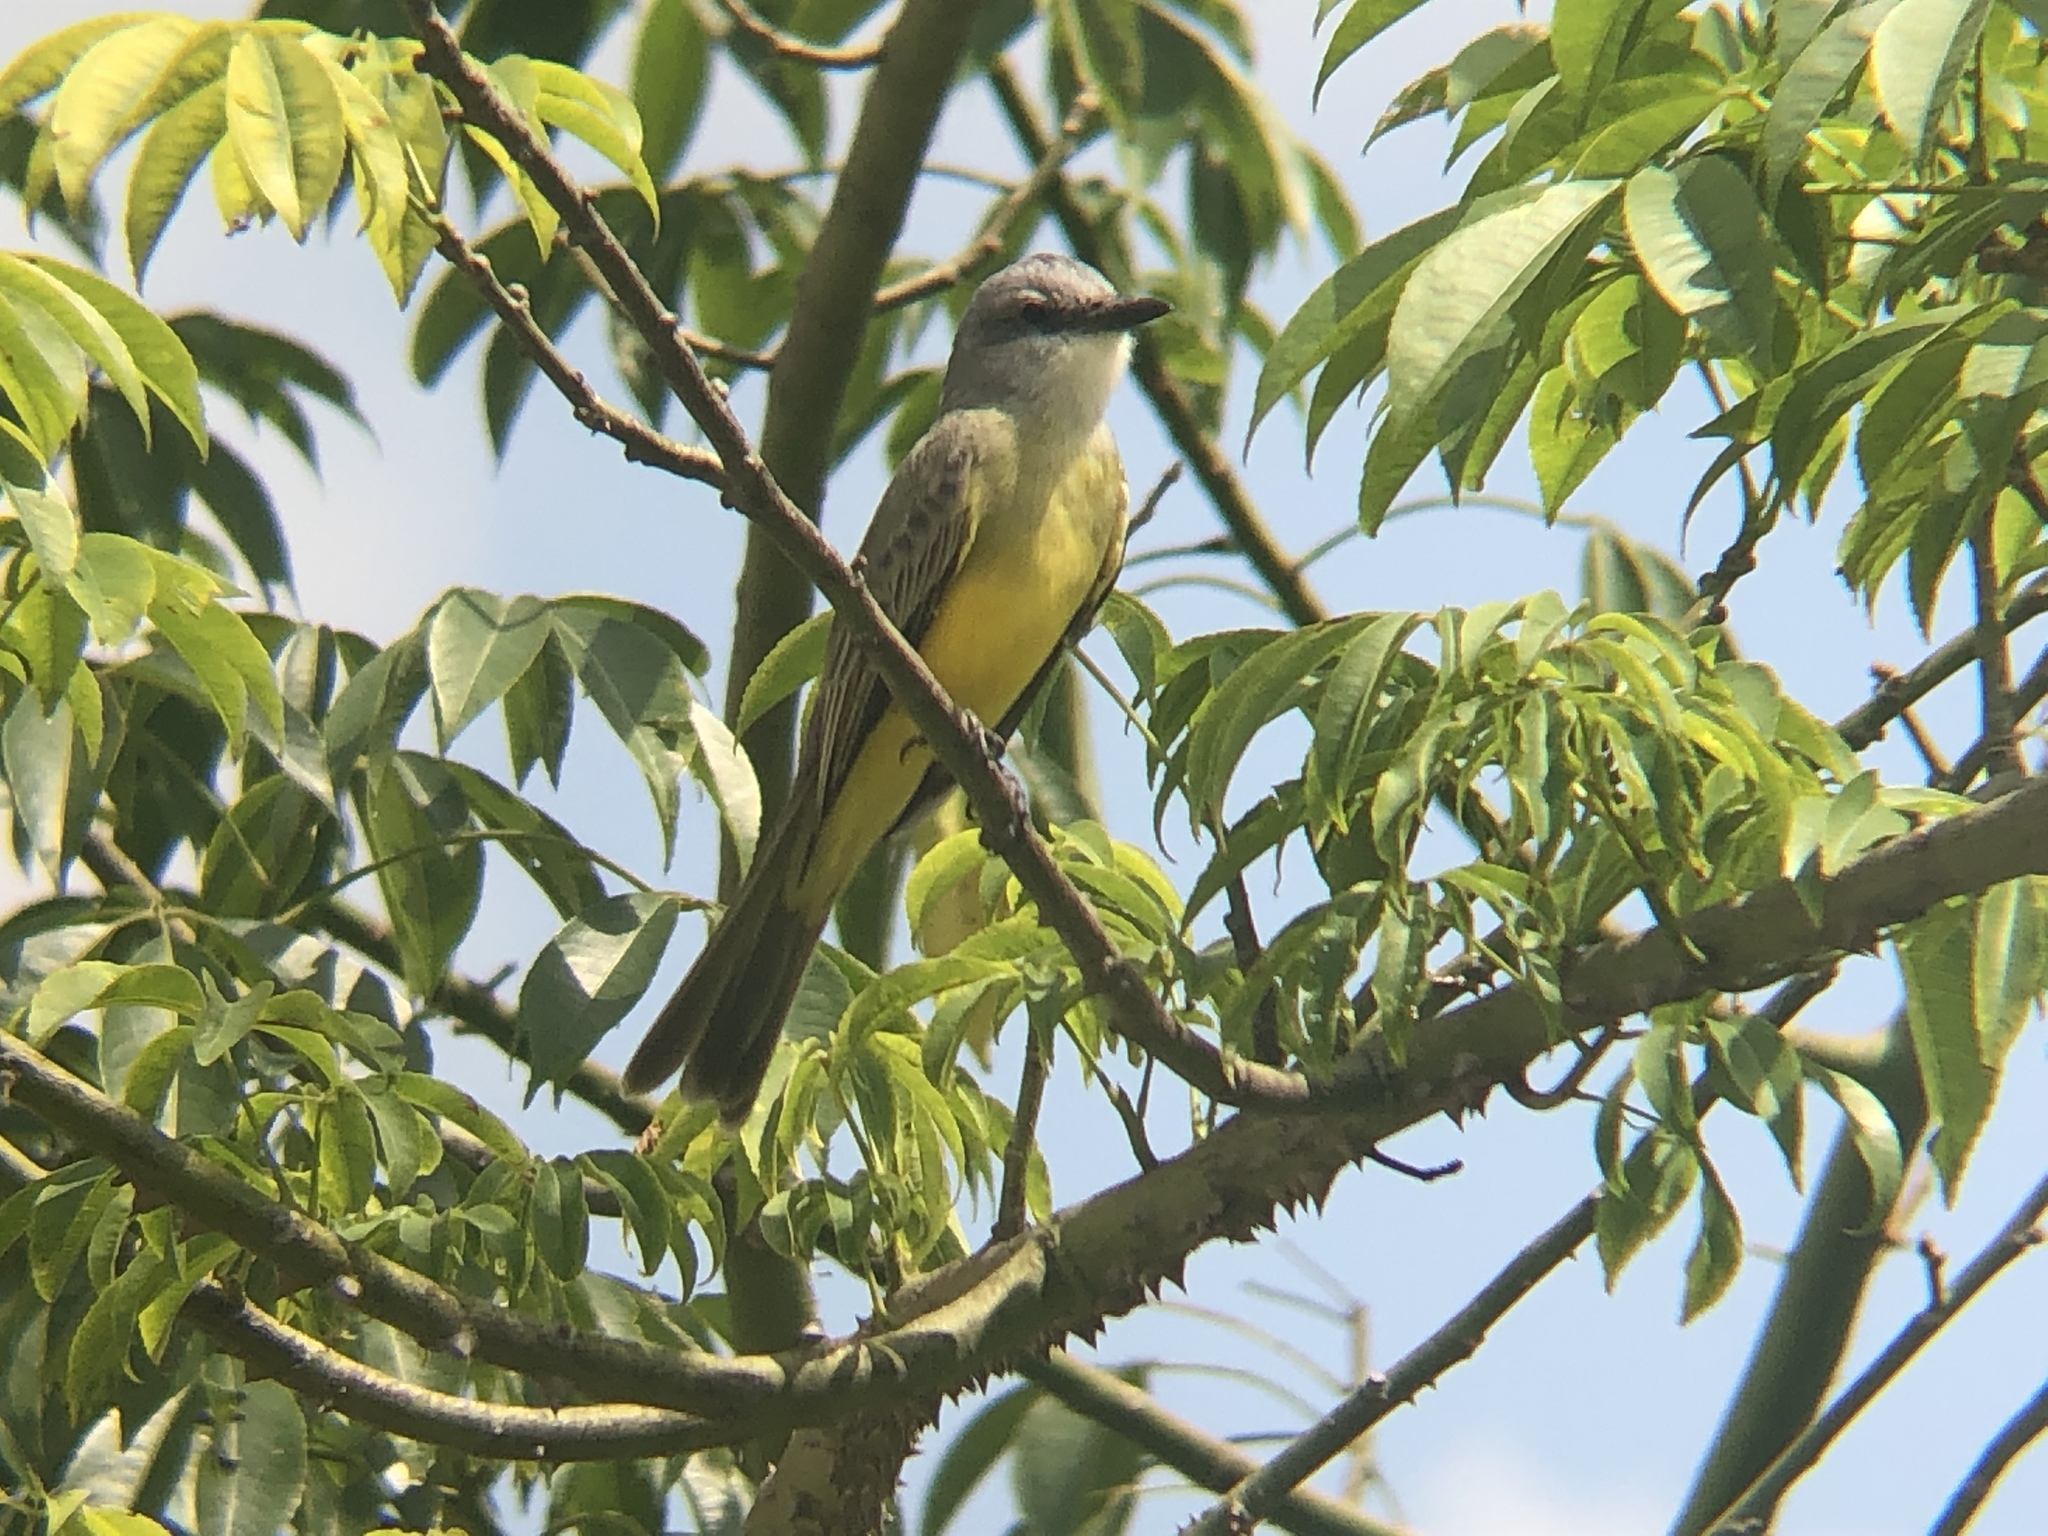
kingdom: Animalia
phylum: Chordata
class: Aves
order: Passeriformes
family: Tyrannidae
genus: Tyrannus
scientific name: Tyrannus melancholicus
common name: Tropical kingbird
